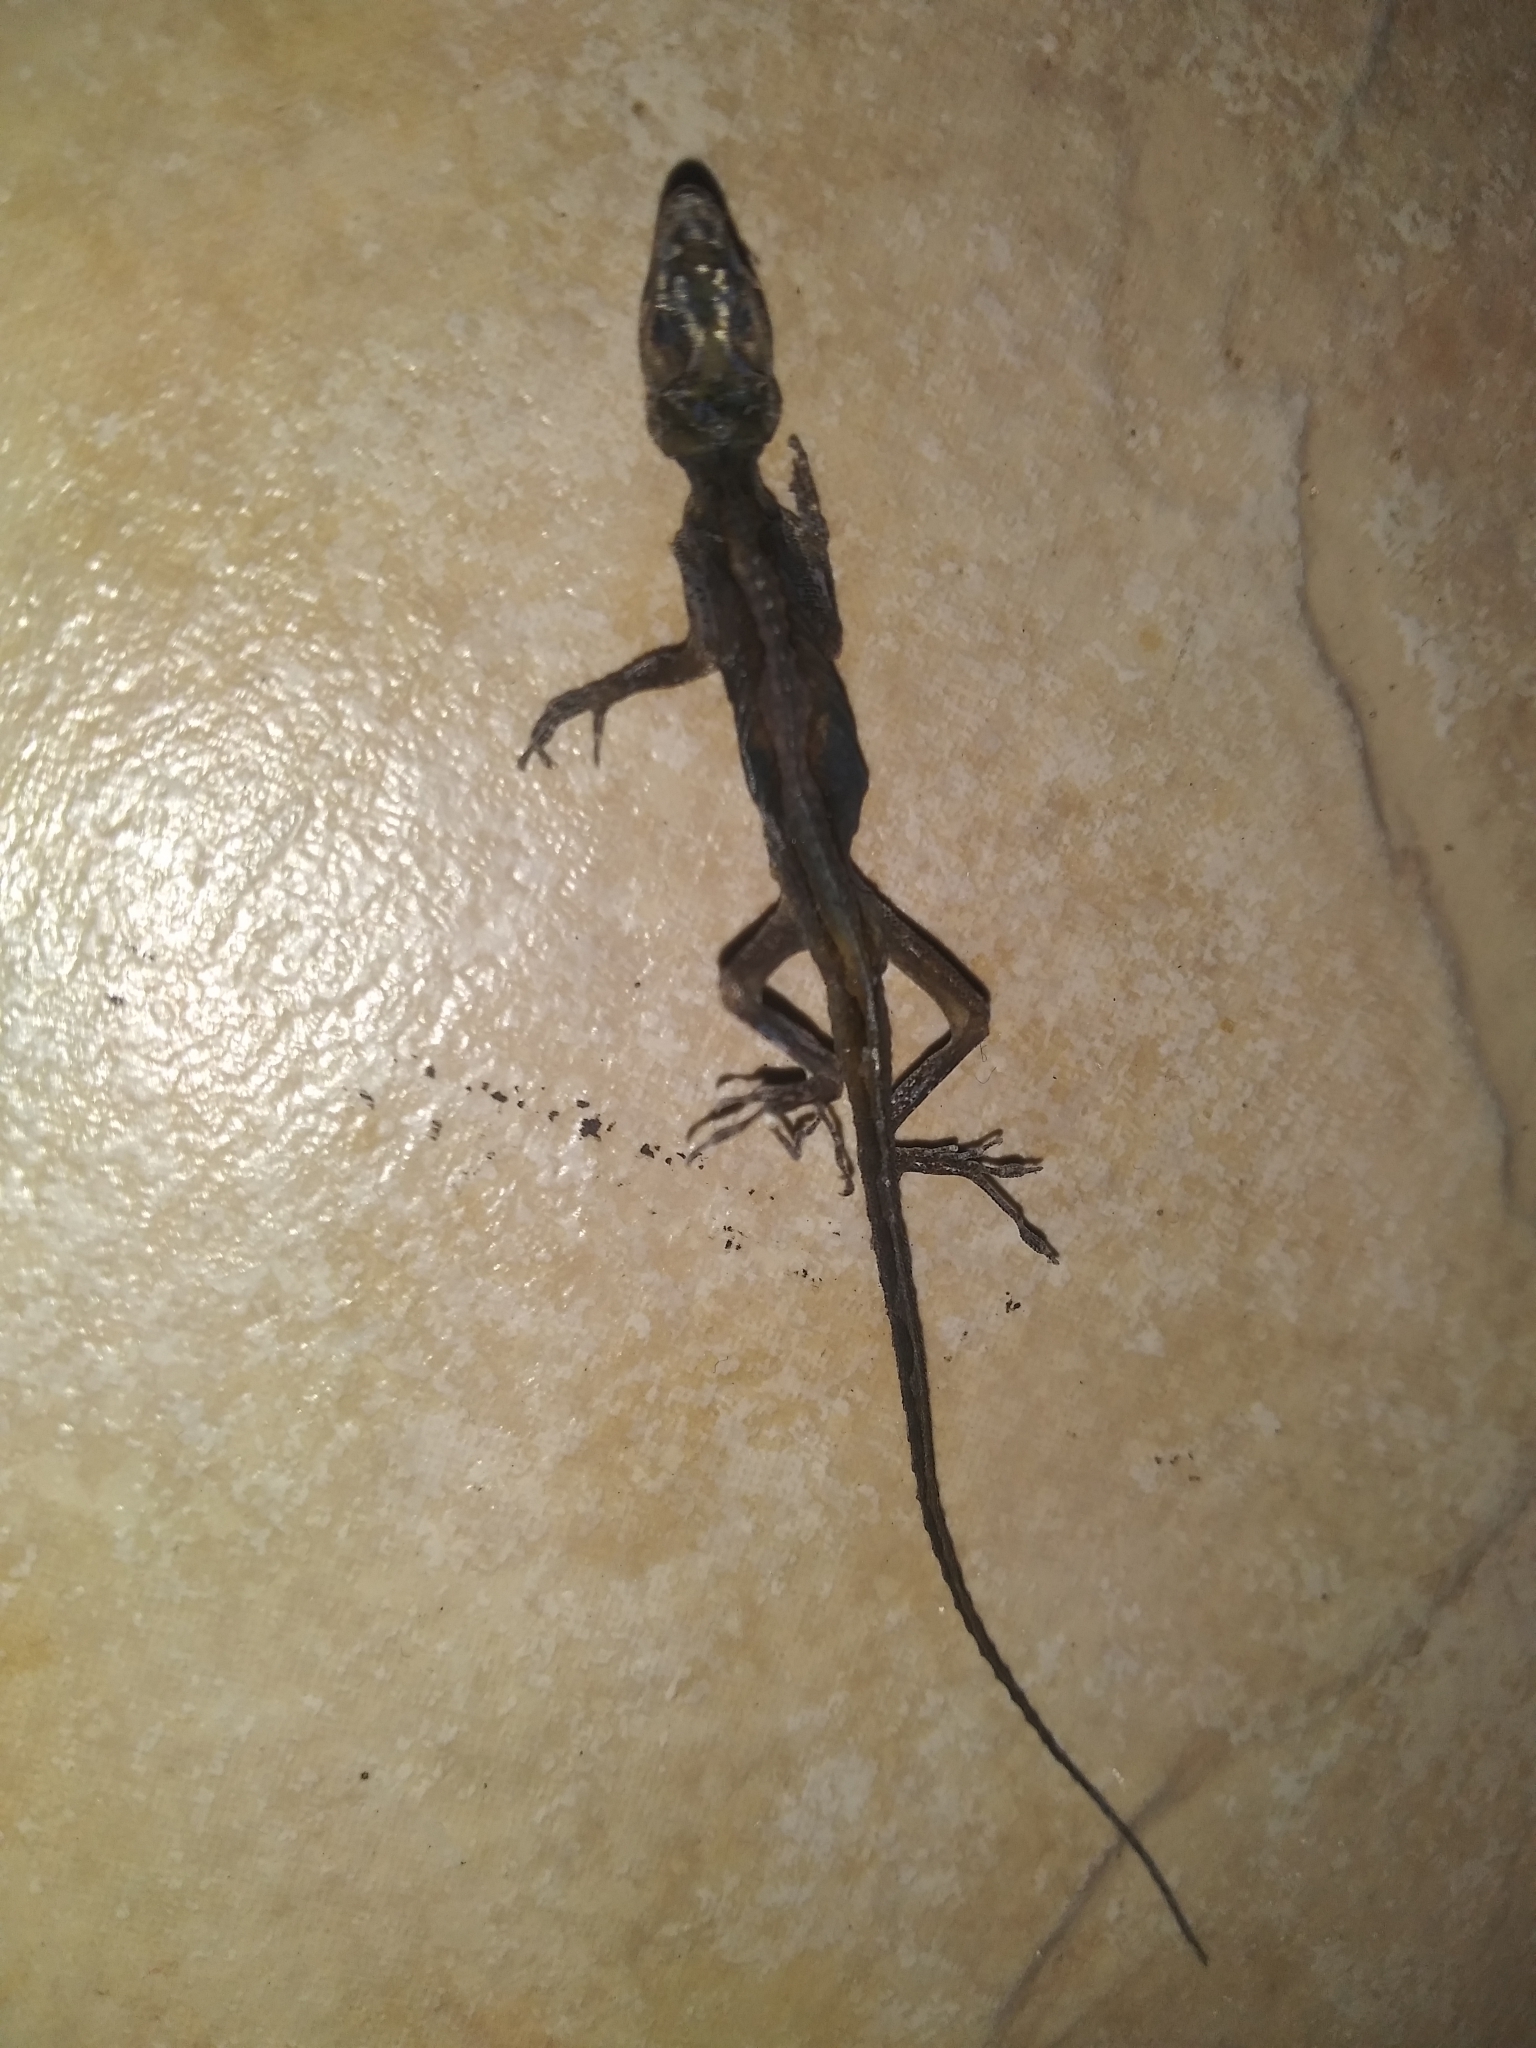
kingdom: Animalia
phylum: Chordata
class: Squamata
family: Dactyloidae
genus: Anolis
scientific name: Anolis carolinensis
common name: Green anole
